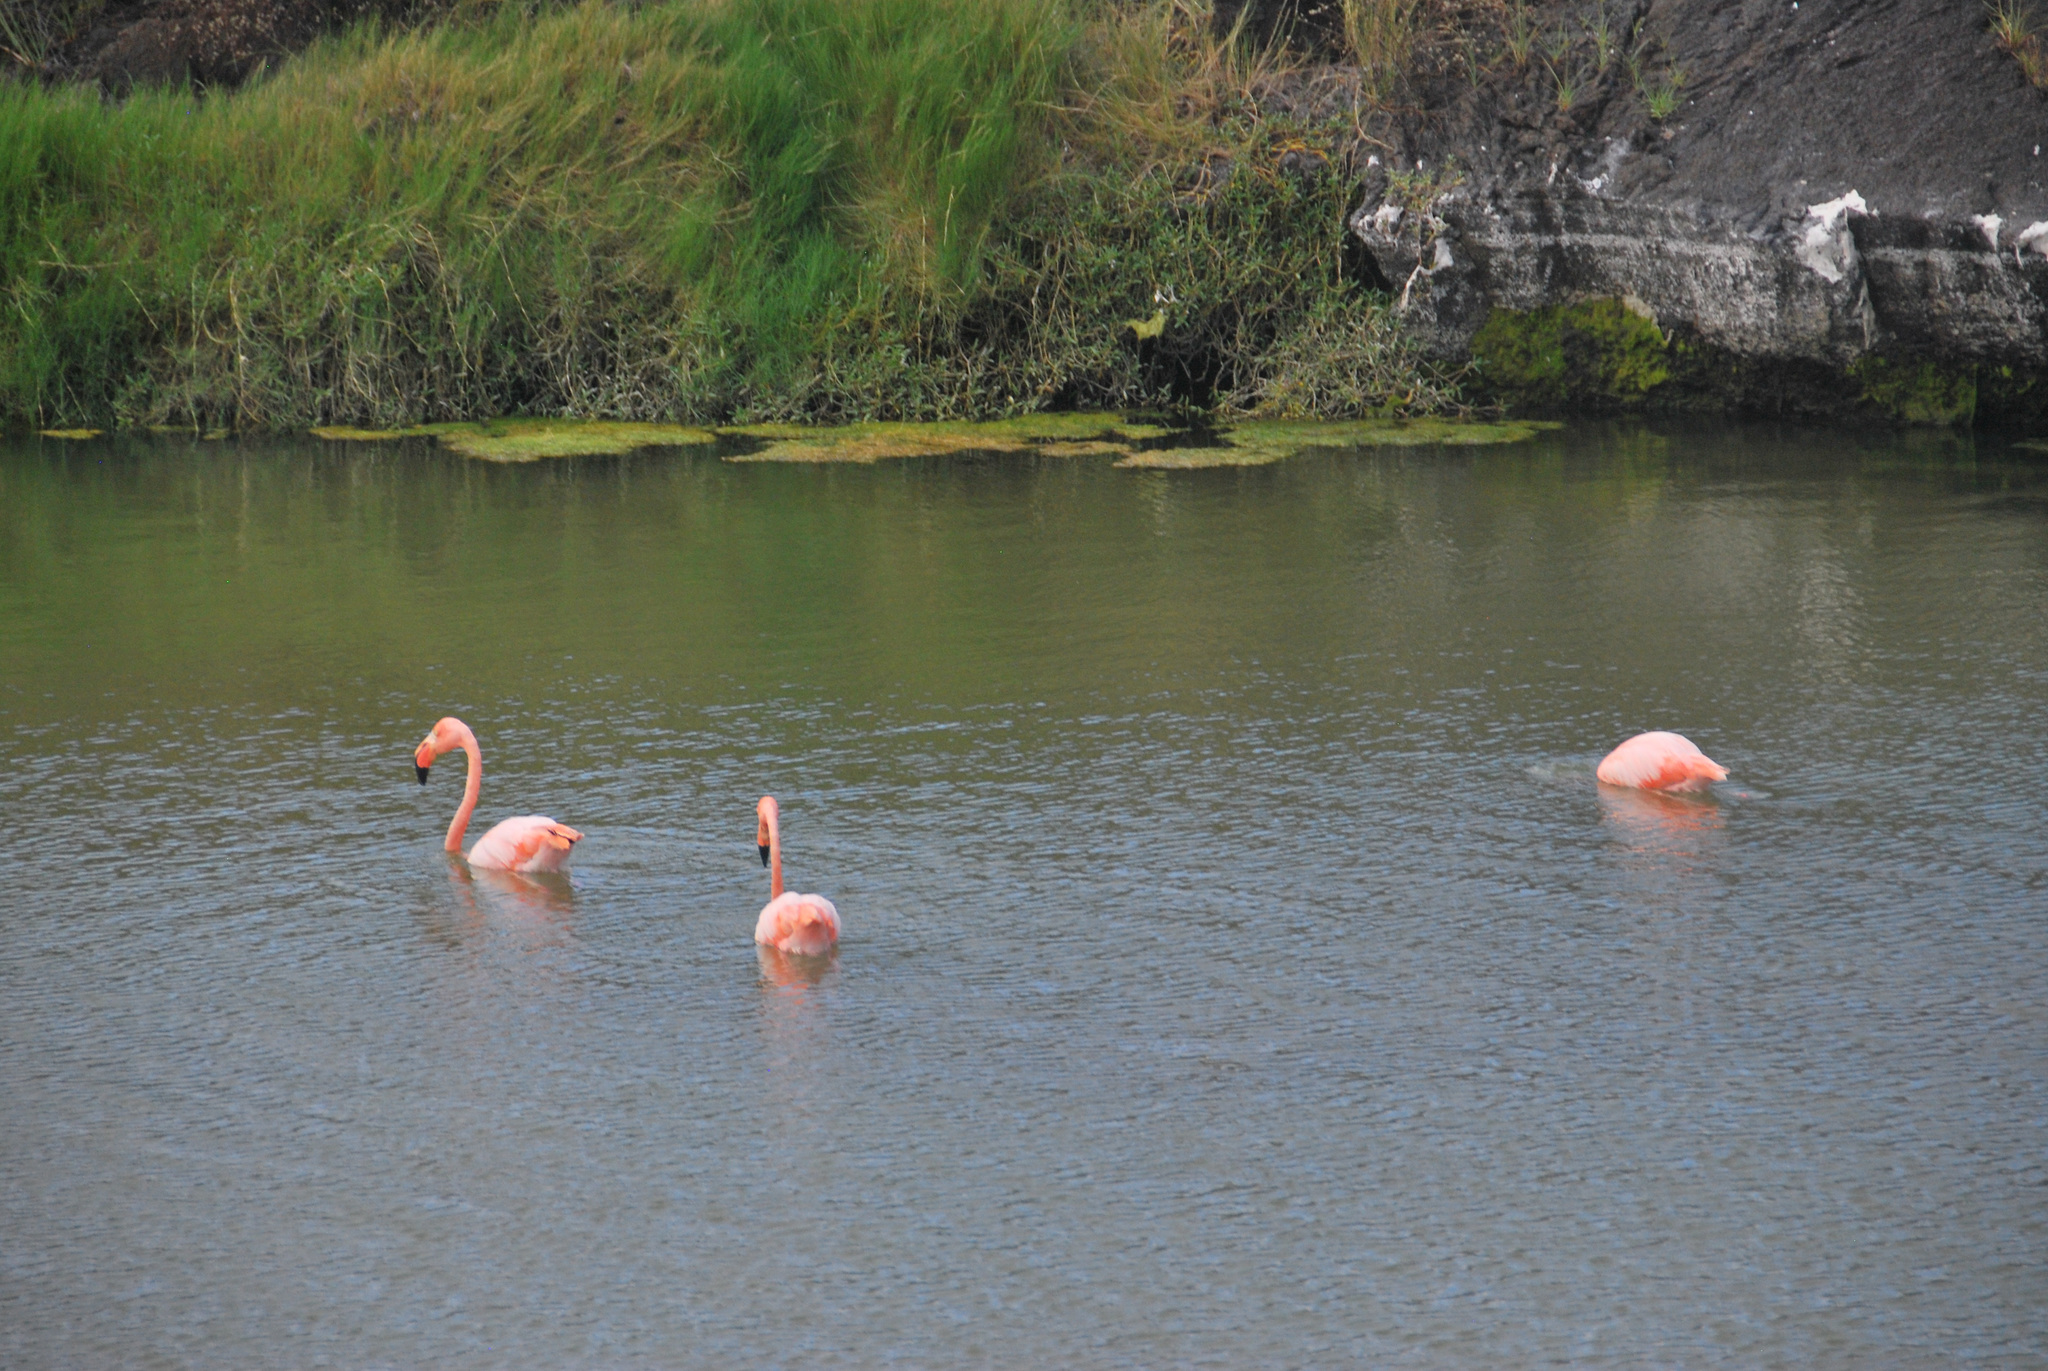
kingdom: Animalia
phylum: Chordata
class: Aves
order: Phoenicopteriformes
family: Phoenicopteridae
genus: Phoenicopterus
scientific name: Phoenicopterus ruber
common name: American flamingo
